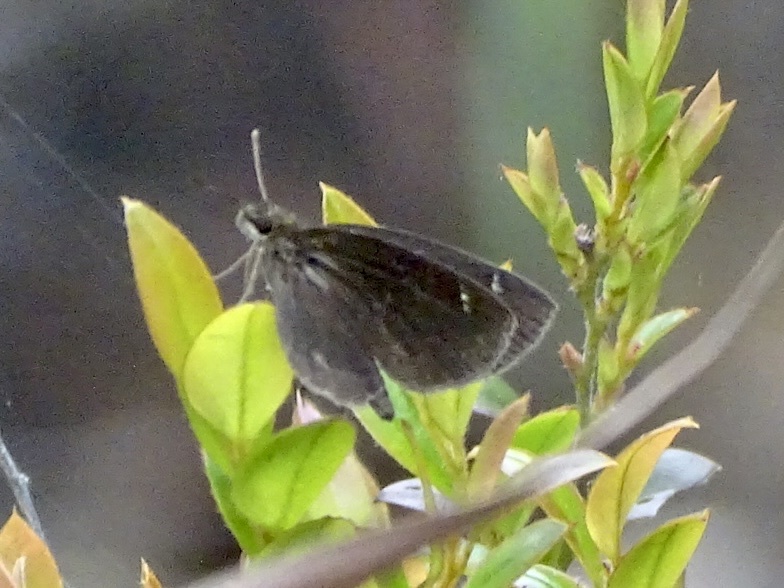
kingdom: Animalia
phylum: Arthropoda
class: Insecta
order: Lepidoptera
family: Hesperiidae
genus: Astictopterus
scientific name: Astictopterus jama
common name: Forest hopper
